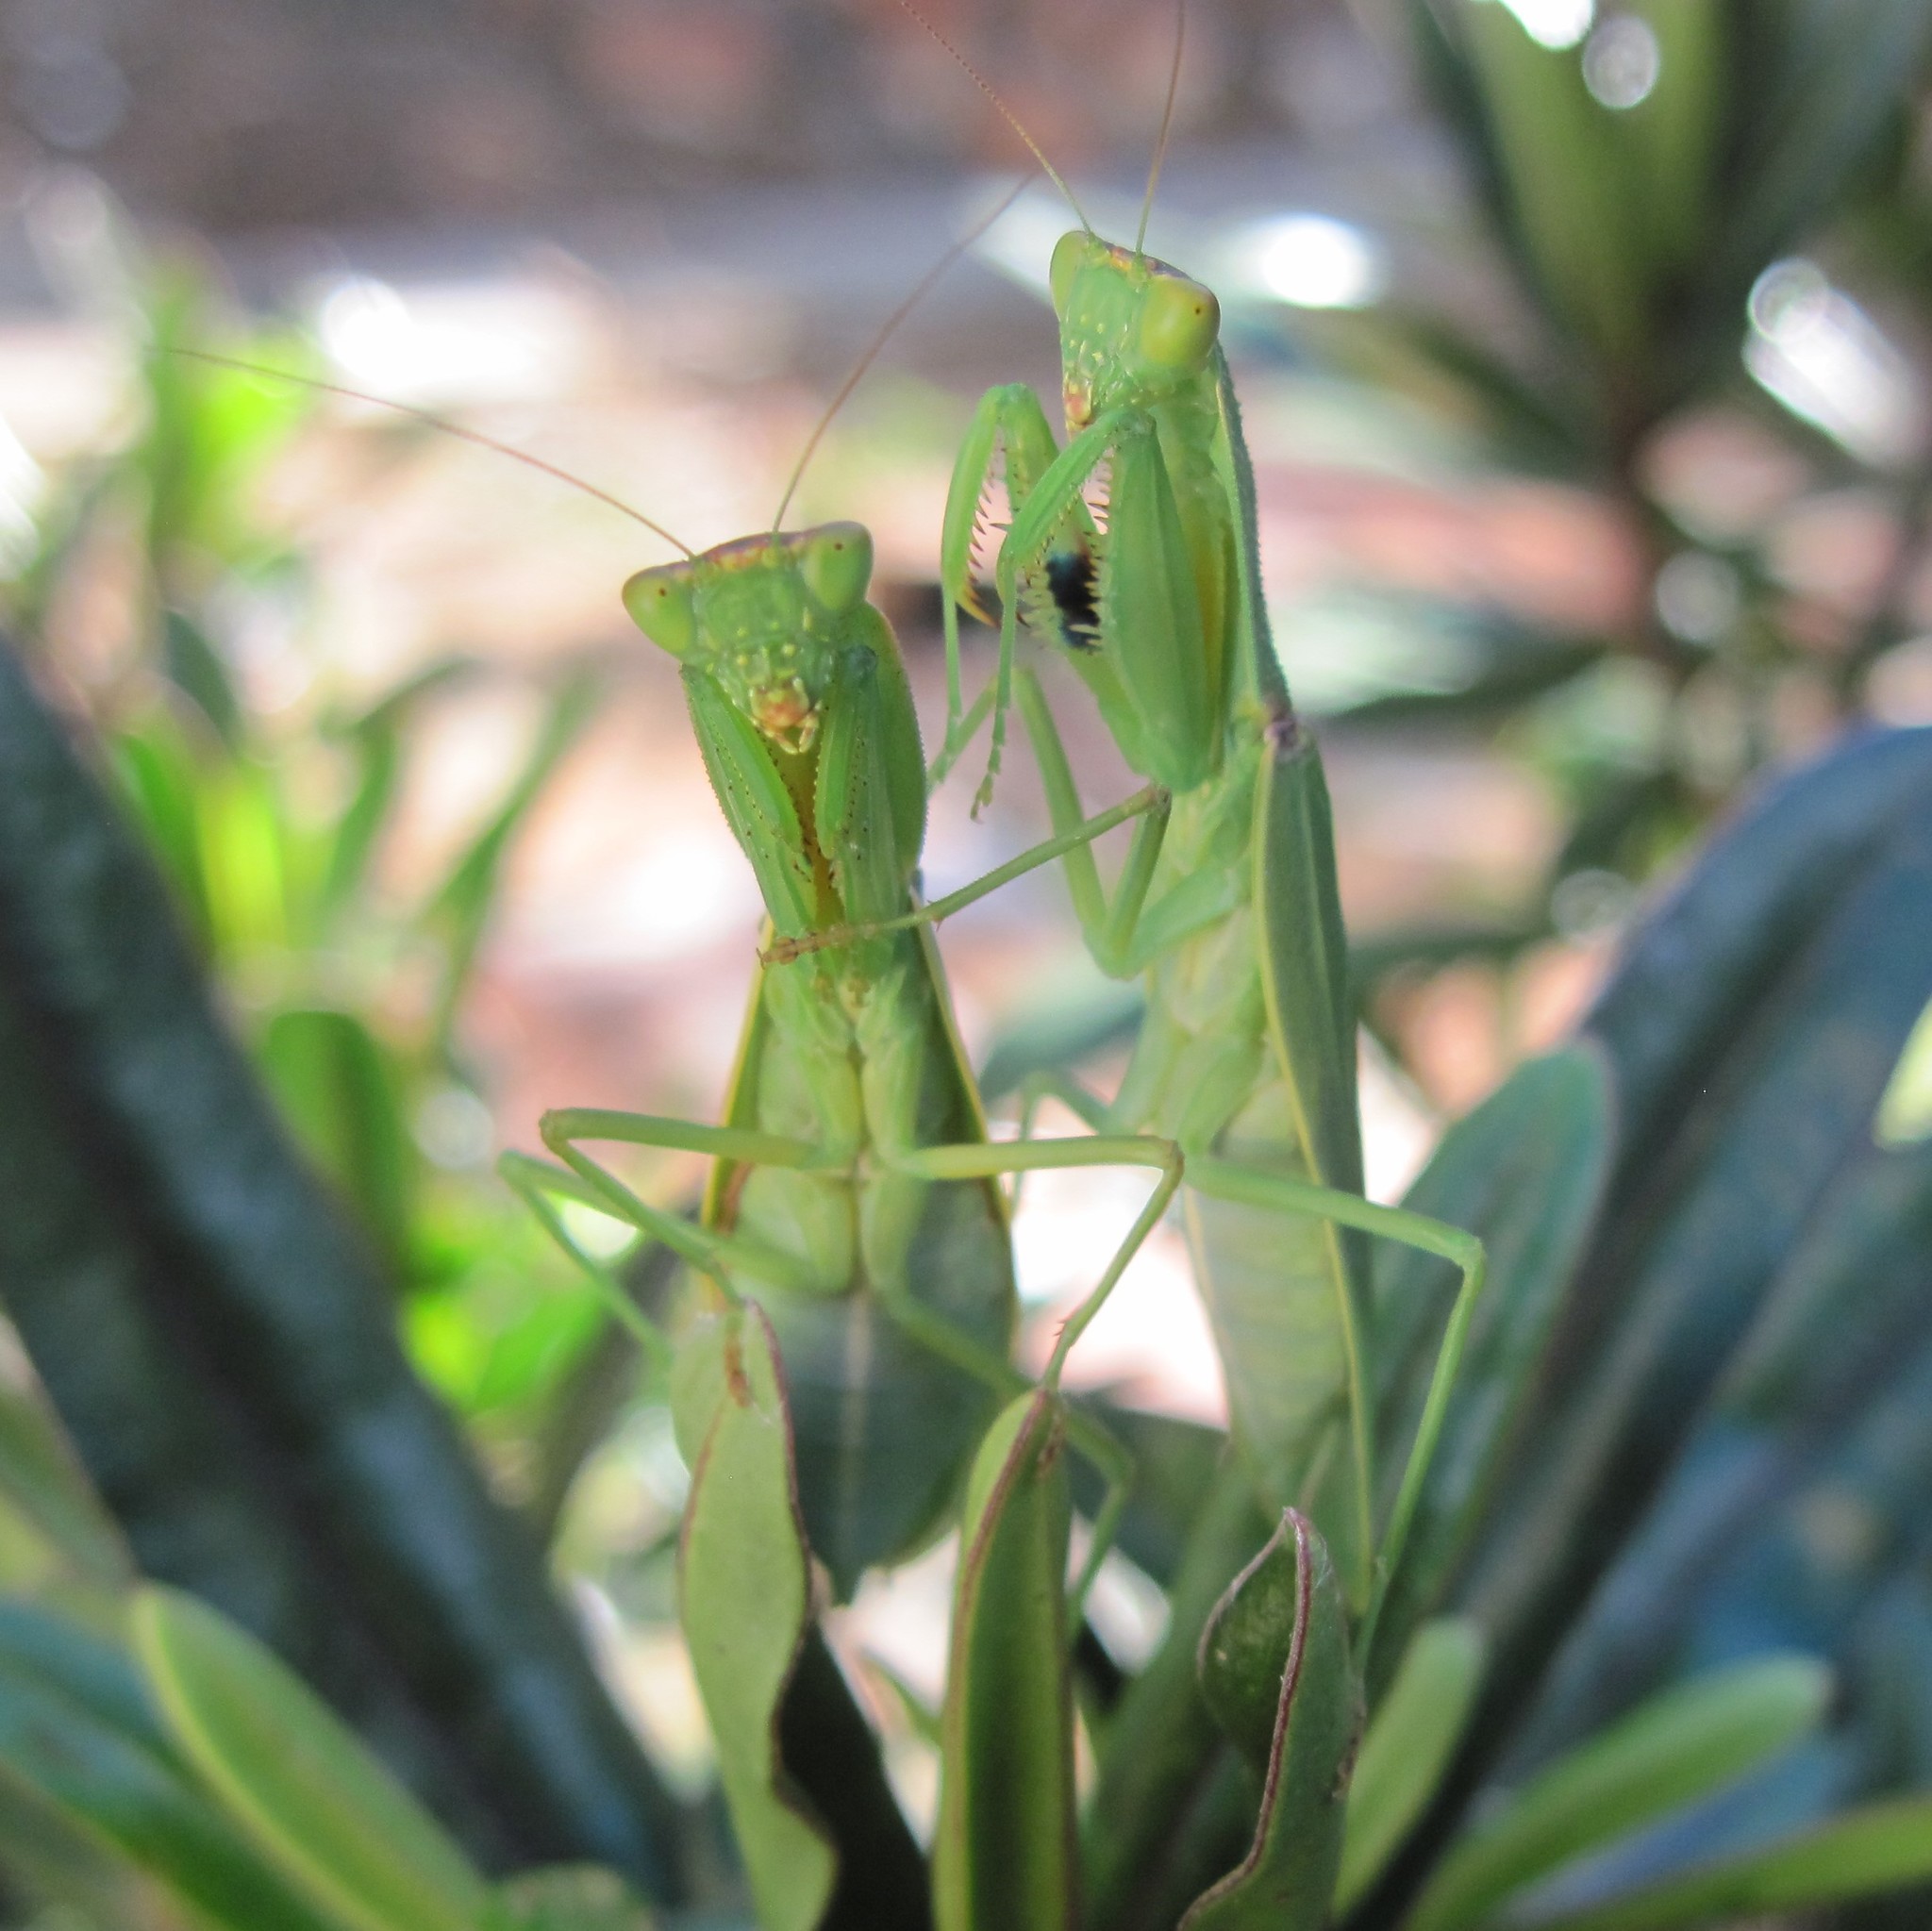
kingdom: Animalia
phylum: Arthropoda
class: Insecta
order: Mantodea
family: Mantidae
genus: Orthodera
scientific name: Orthodera novaezealandiae
